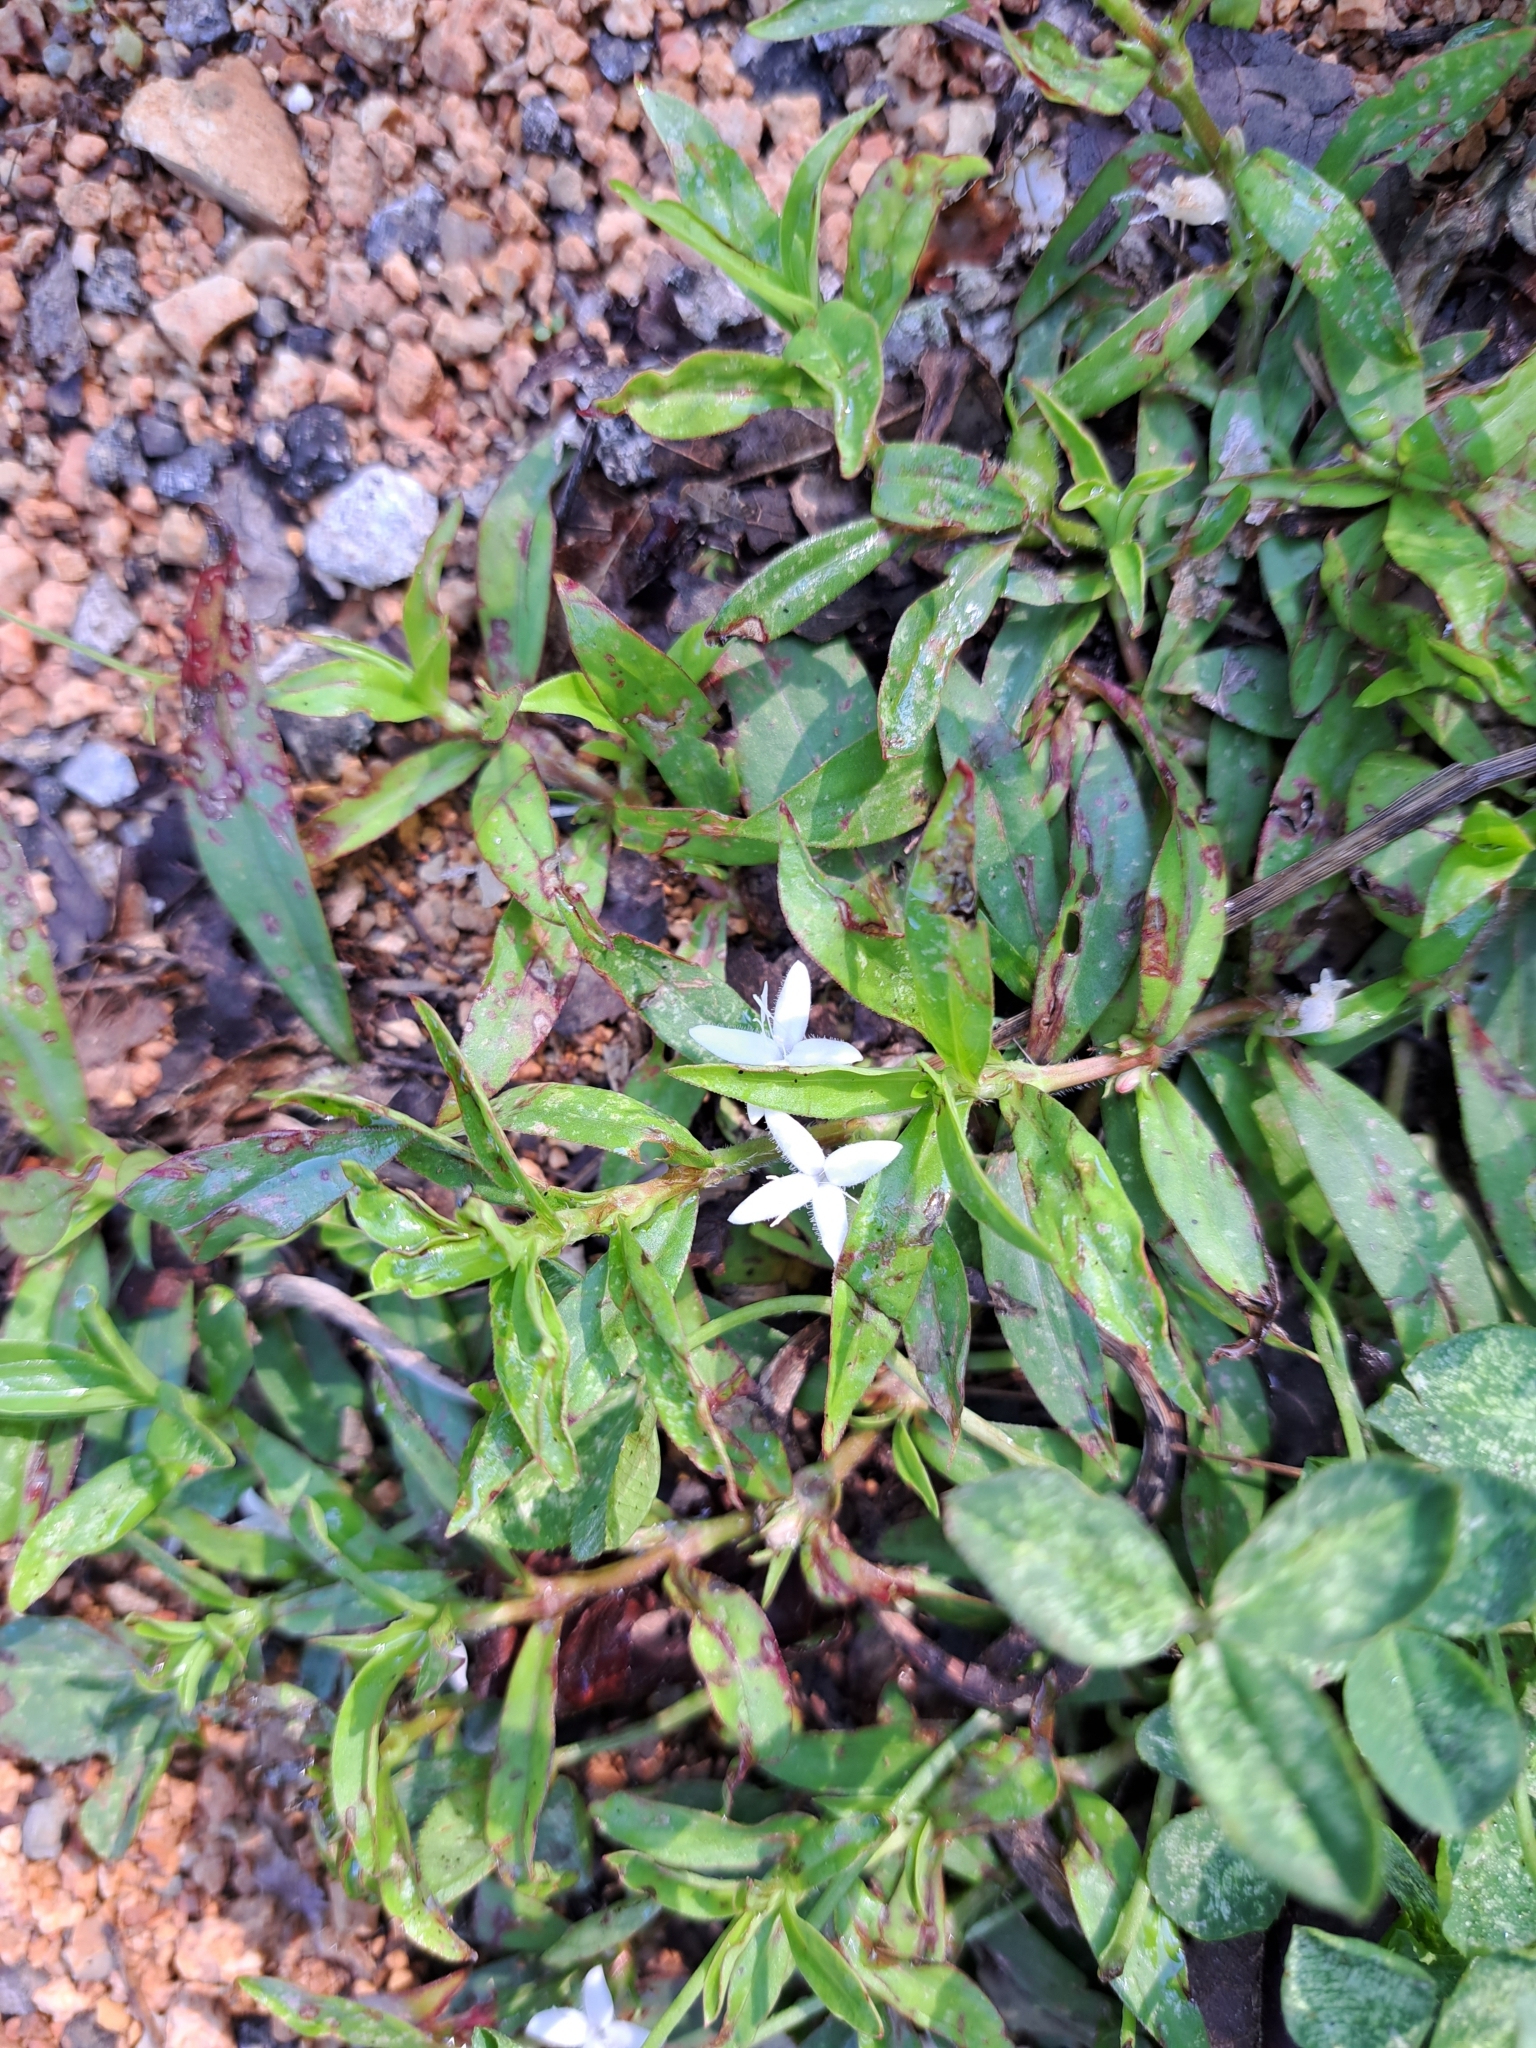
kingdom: Plantae
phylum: Tracheophyta
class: Magnoliopsida
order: Gentianales
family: Rubiaceae
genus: Diodia
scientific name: Diodia virginiana
